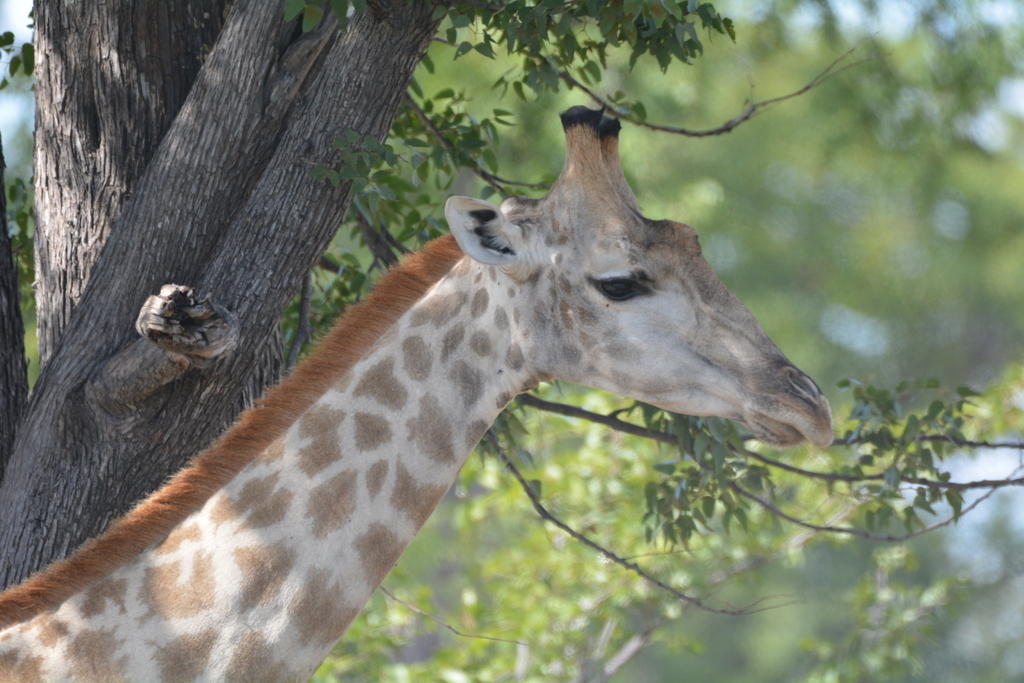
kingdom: Animalia
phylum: Chordata
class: Mammalia
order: Artiodactyla
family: Giraffidae
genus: Giraffa
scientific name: Giraffa giraffa
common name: Southern giraffe
